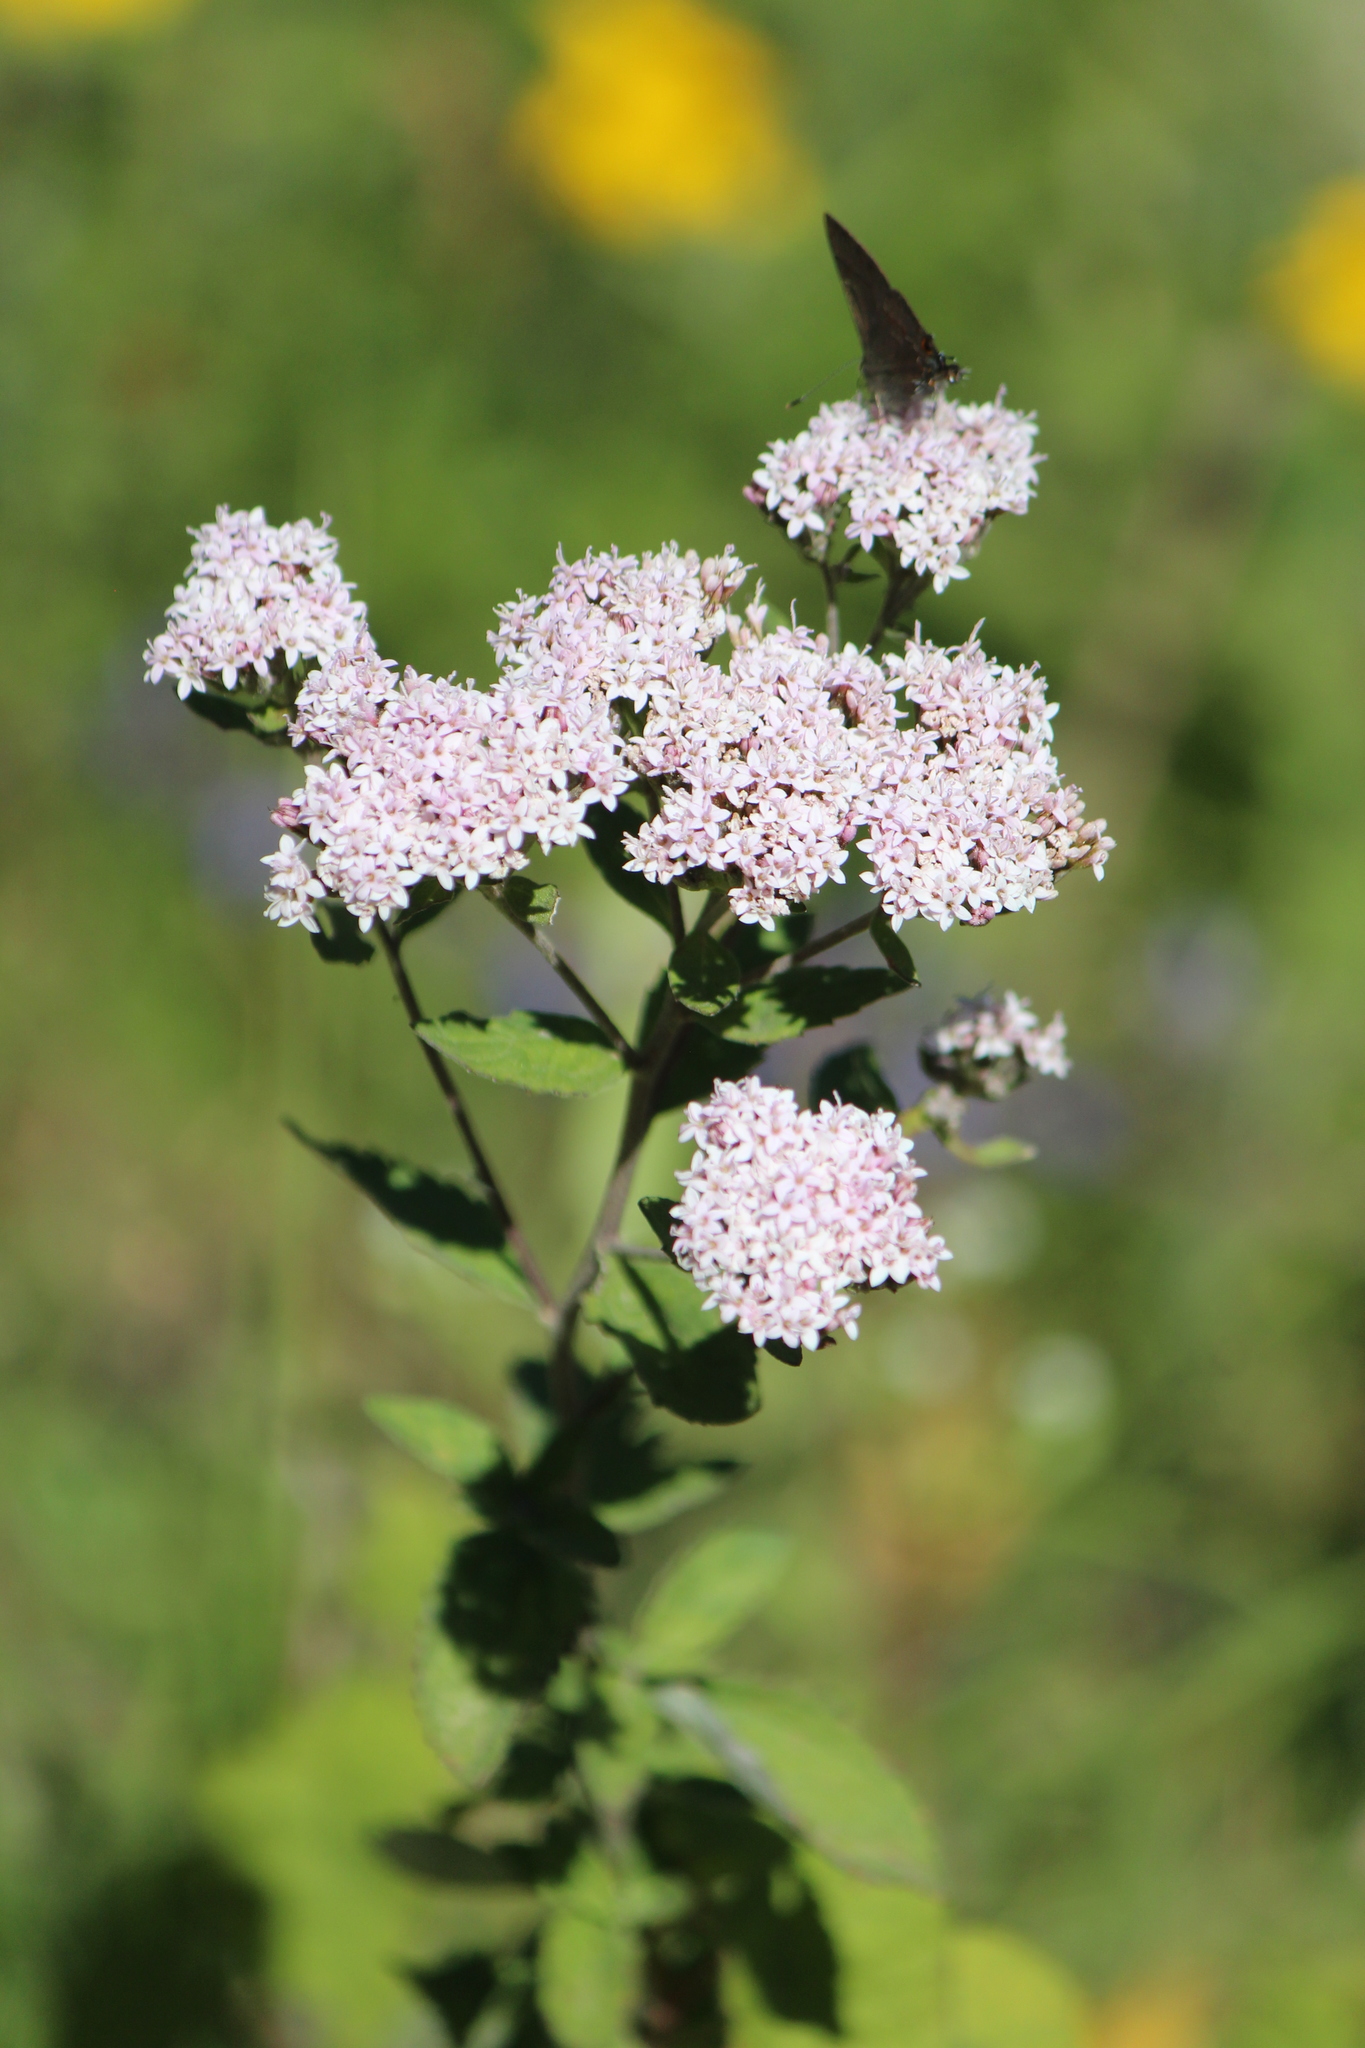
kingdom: Animalia
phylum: Arthropoda
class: Insecta
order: Lepidoptera
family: Lycaenidae
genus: Electrostrymon
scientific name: Electrostrymon
